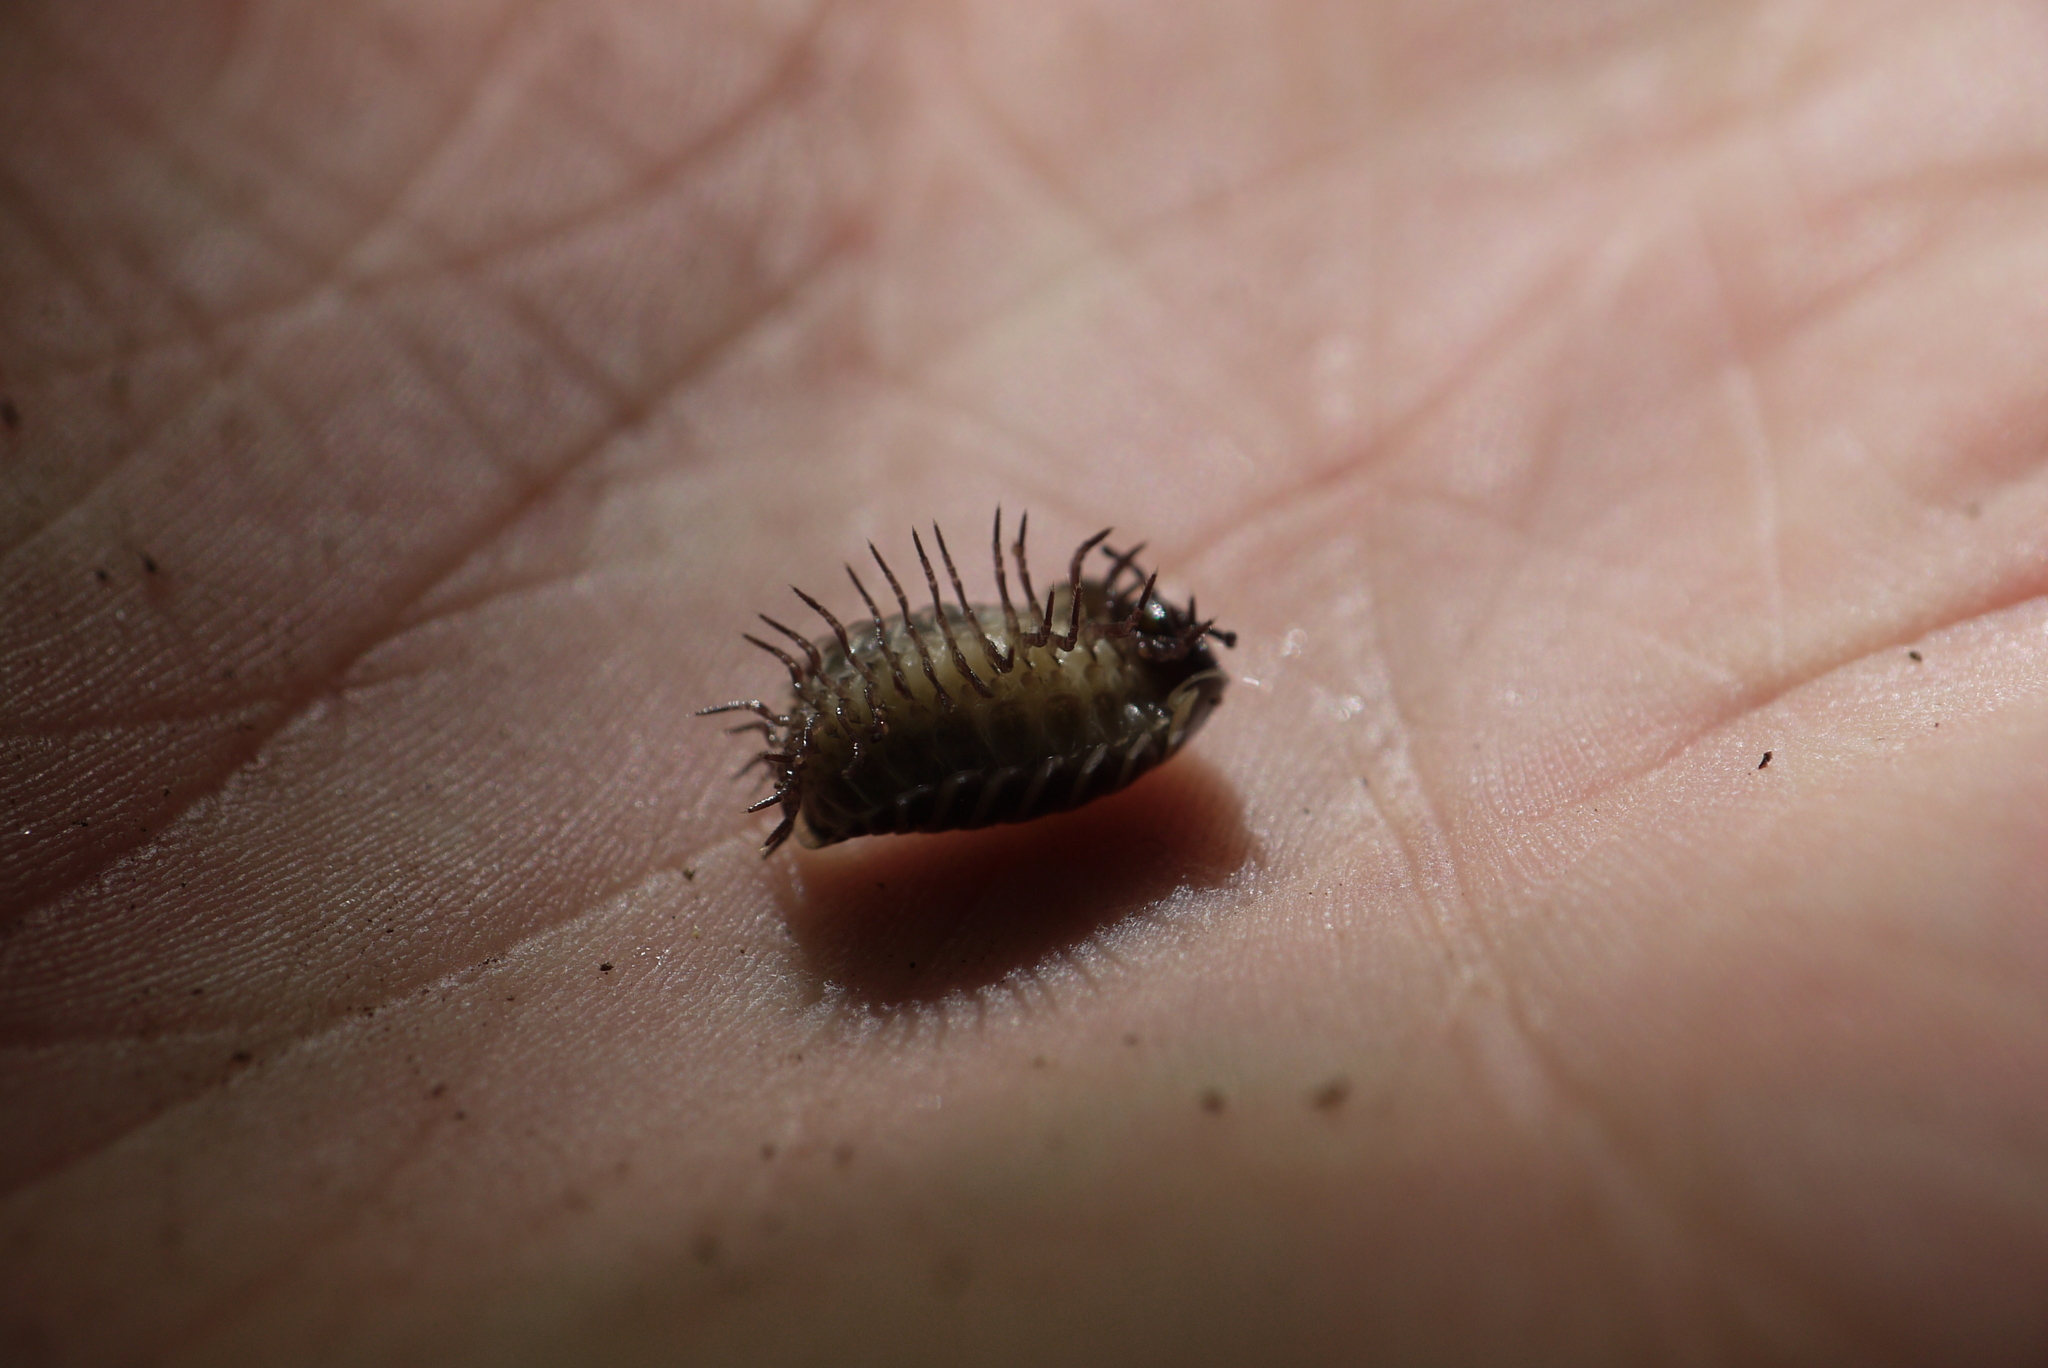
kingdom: Animalia
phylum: Arthropoda
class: Diplopoda
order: Glomerida
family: Glomeridae
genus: Glomeris
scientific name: Glomeris marginata
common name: Bordered pill millipede
